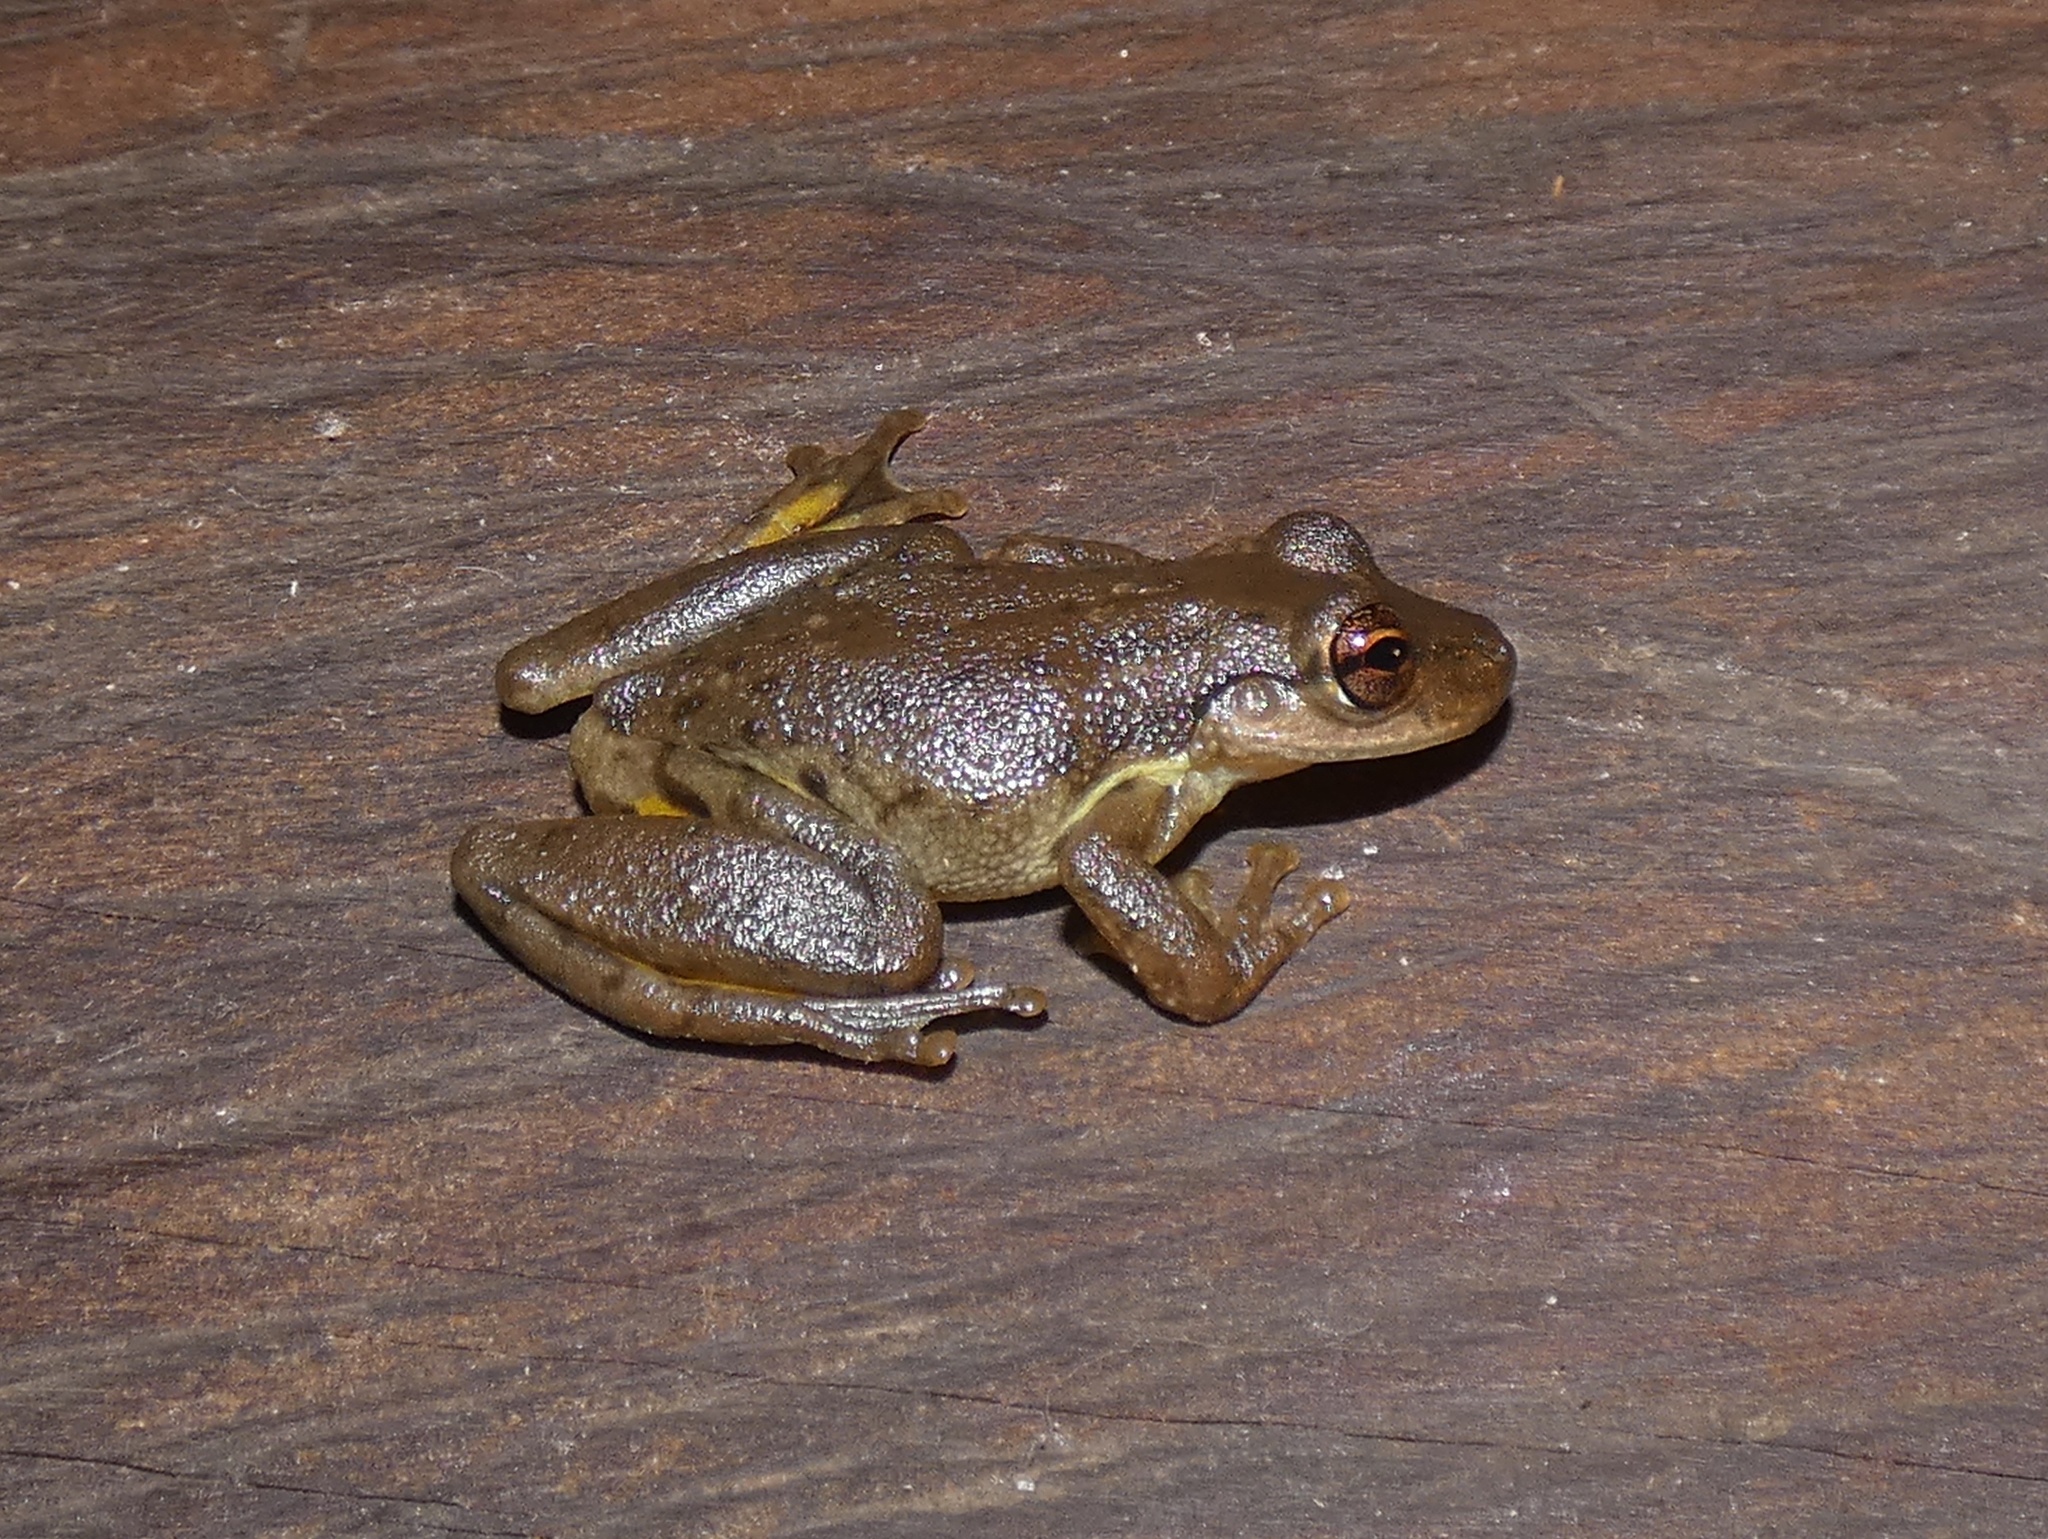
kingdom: Animalia
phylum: Chordata
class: Amphibia
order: Anura
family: Hylidae
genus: Scinax
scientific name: Scinax ruber
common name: Red snouted treefrog
